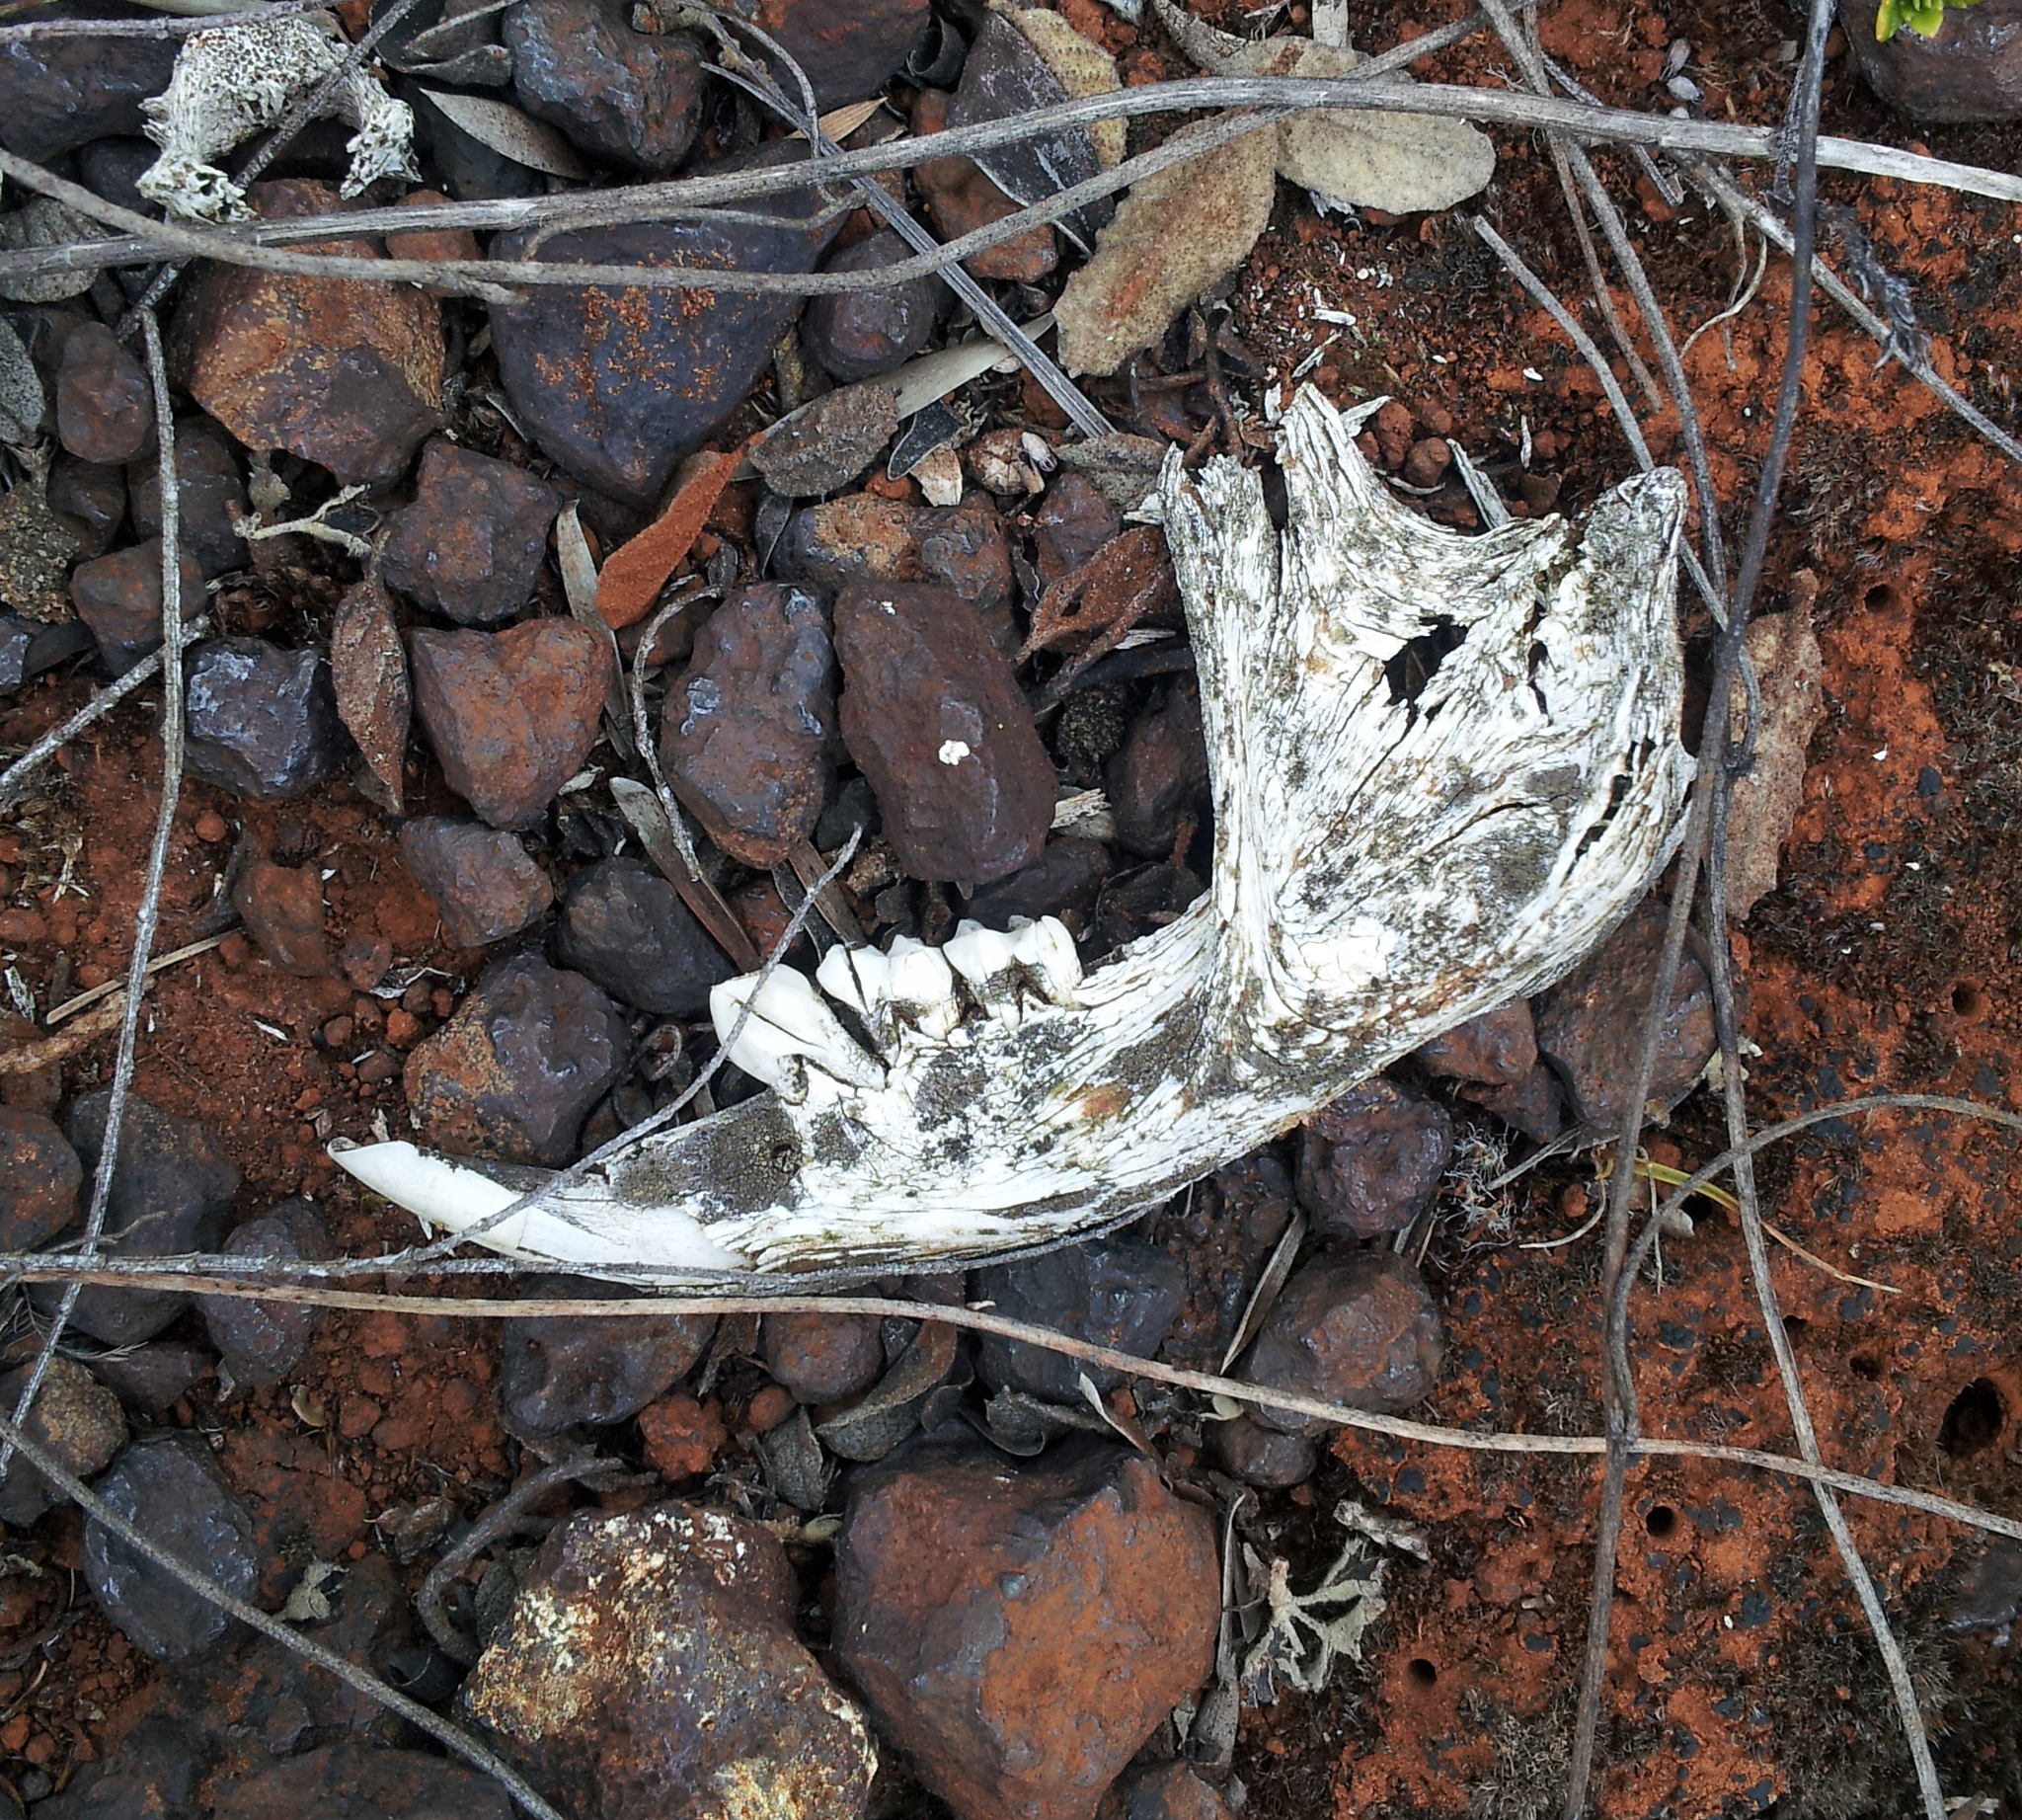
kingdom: Animalia
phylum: Chordata
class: Mammalia
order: Diprotodontia
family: Phalangeridae
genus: Trichosurus
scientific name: Trichosurus vulpecula
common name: Common brushtail
